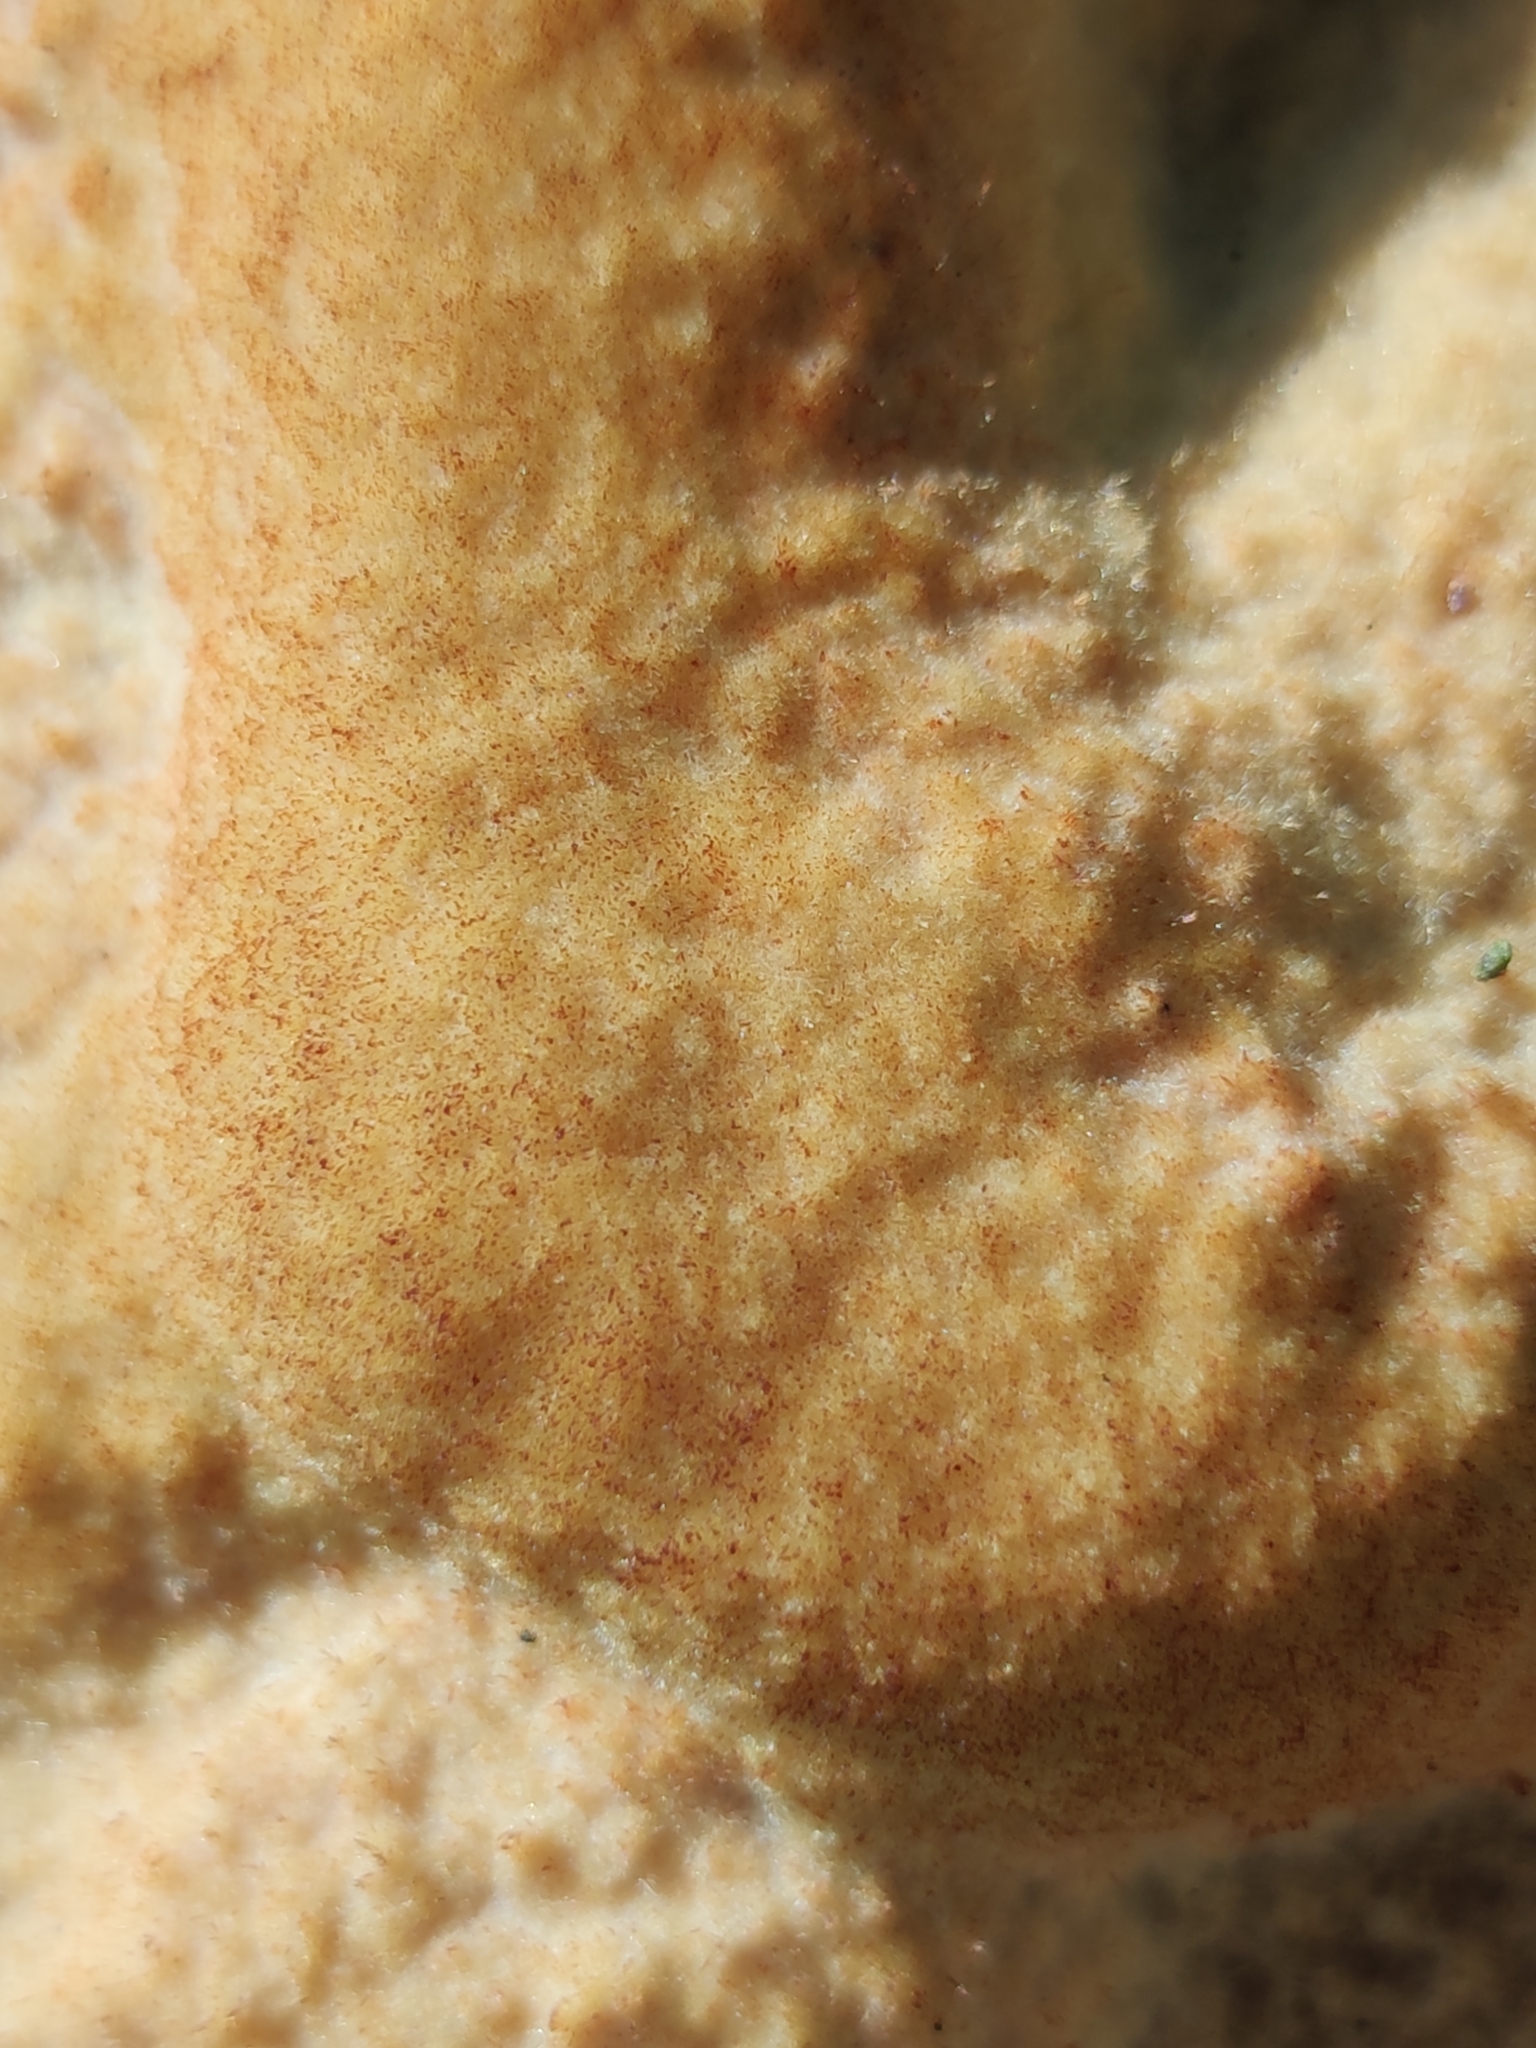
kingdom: Fungi
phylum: Basidiomycota
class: Agaricomycetes
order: Polyporales
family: Laetiporaceae
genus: Phaeolus
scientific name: Phaeolus schweinitzii
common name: Dyer's mazegill
